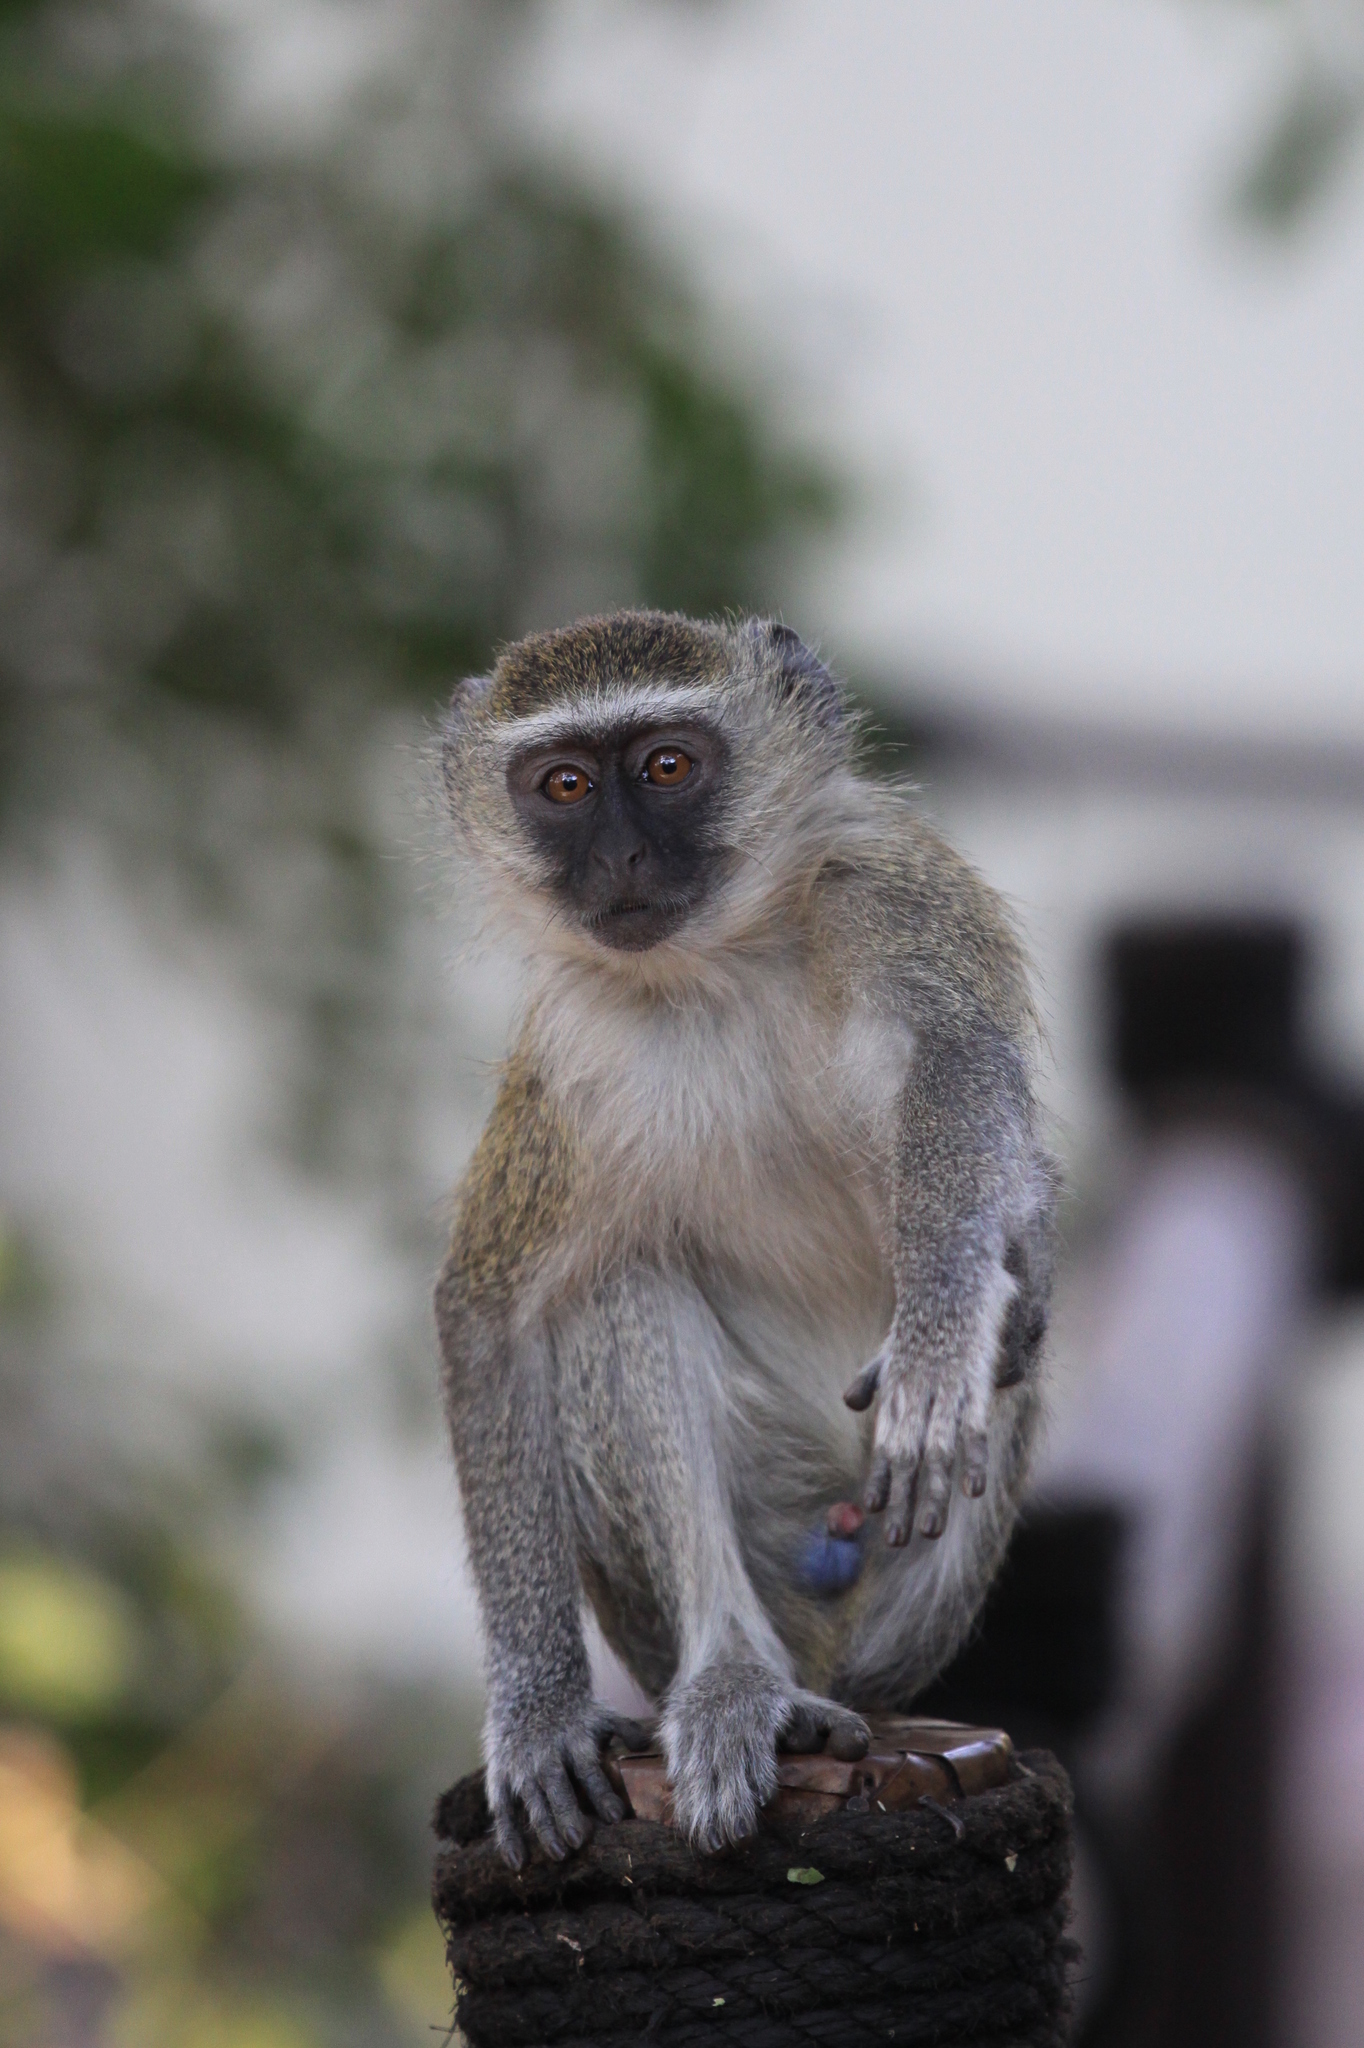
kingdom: Animalia
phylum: Chordata
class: Mammalia
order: Primates
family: Cercopithecidae
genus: Chlorocebus
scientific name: Chlorocebus pygerythrus
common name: Vervet monkey
